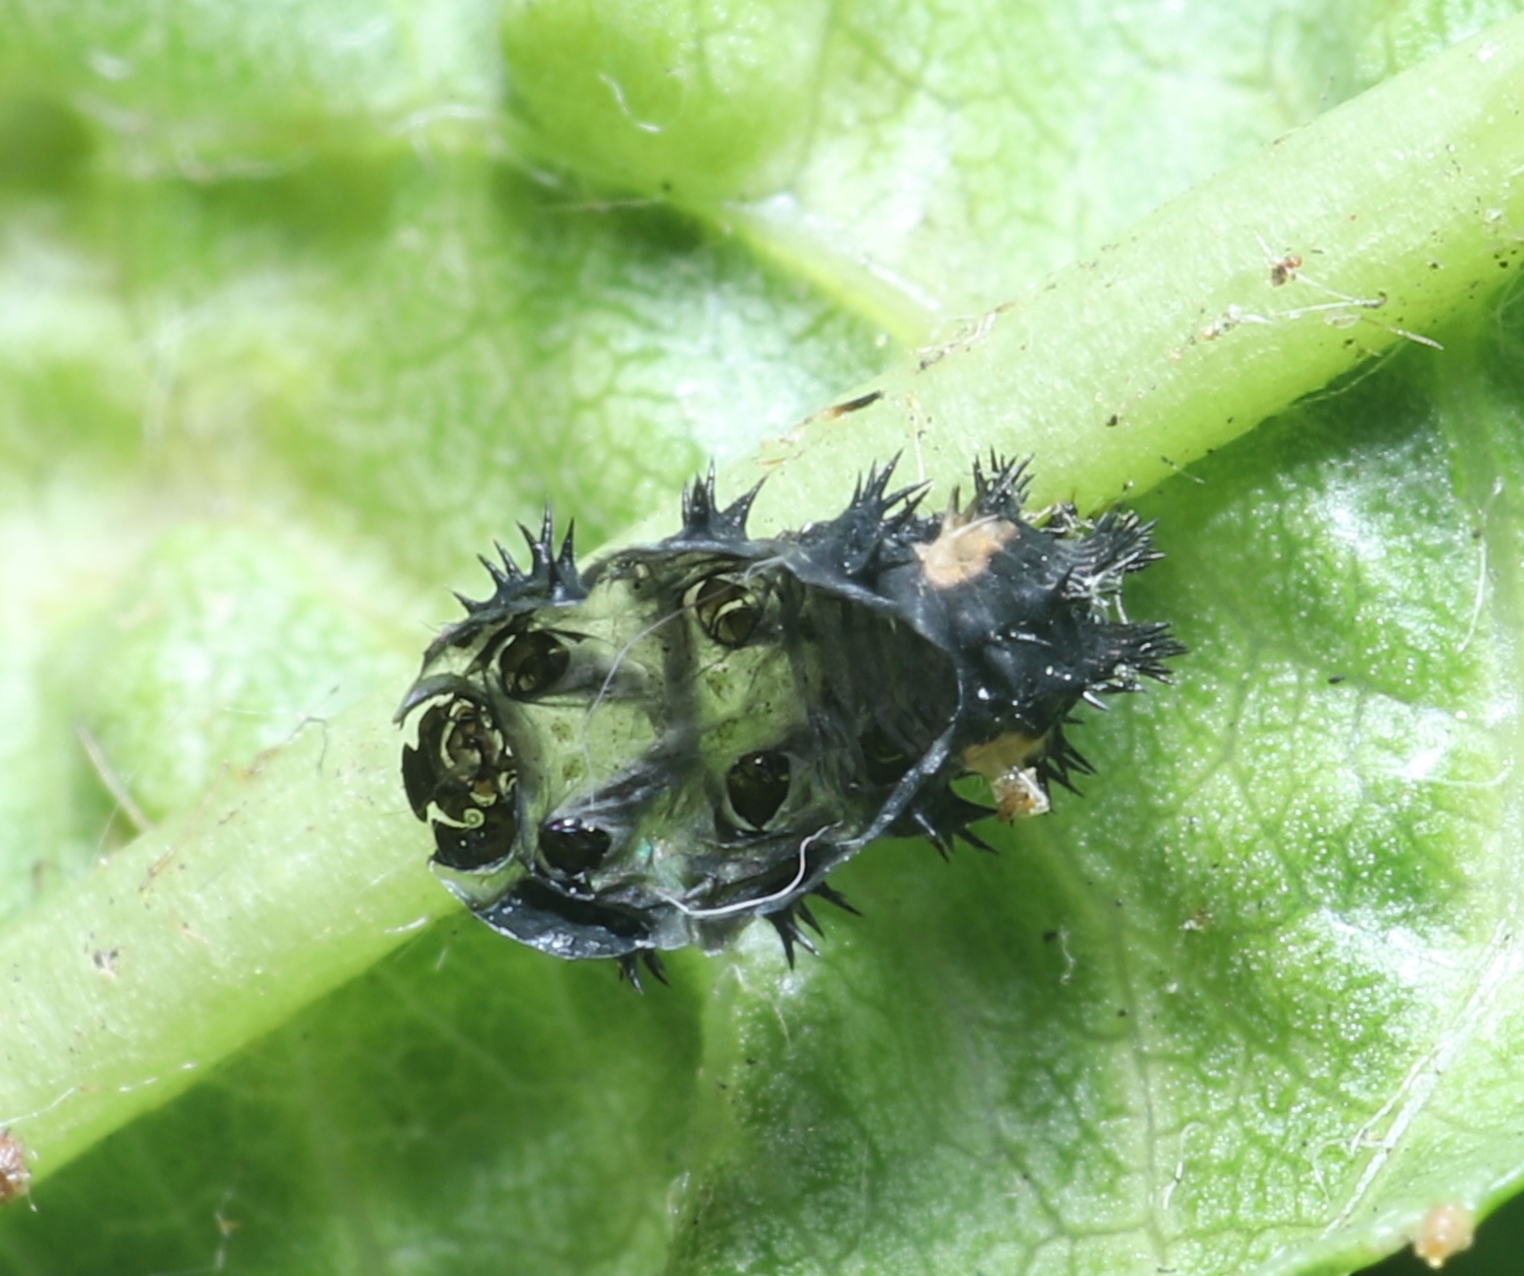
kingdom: Animalia
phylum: Arthropoda
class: Insecta
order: Coleoptera
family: Coccinellidae
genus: Harmonia
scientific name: Harmonia axyridis
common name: Harlequin ladybird
